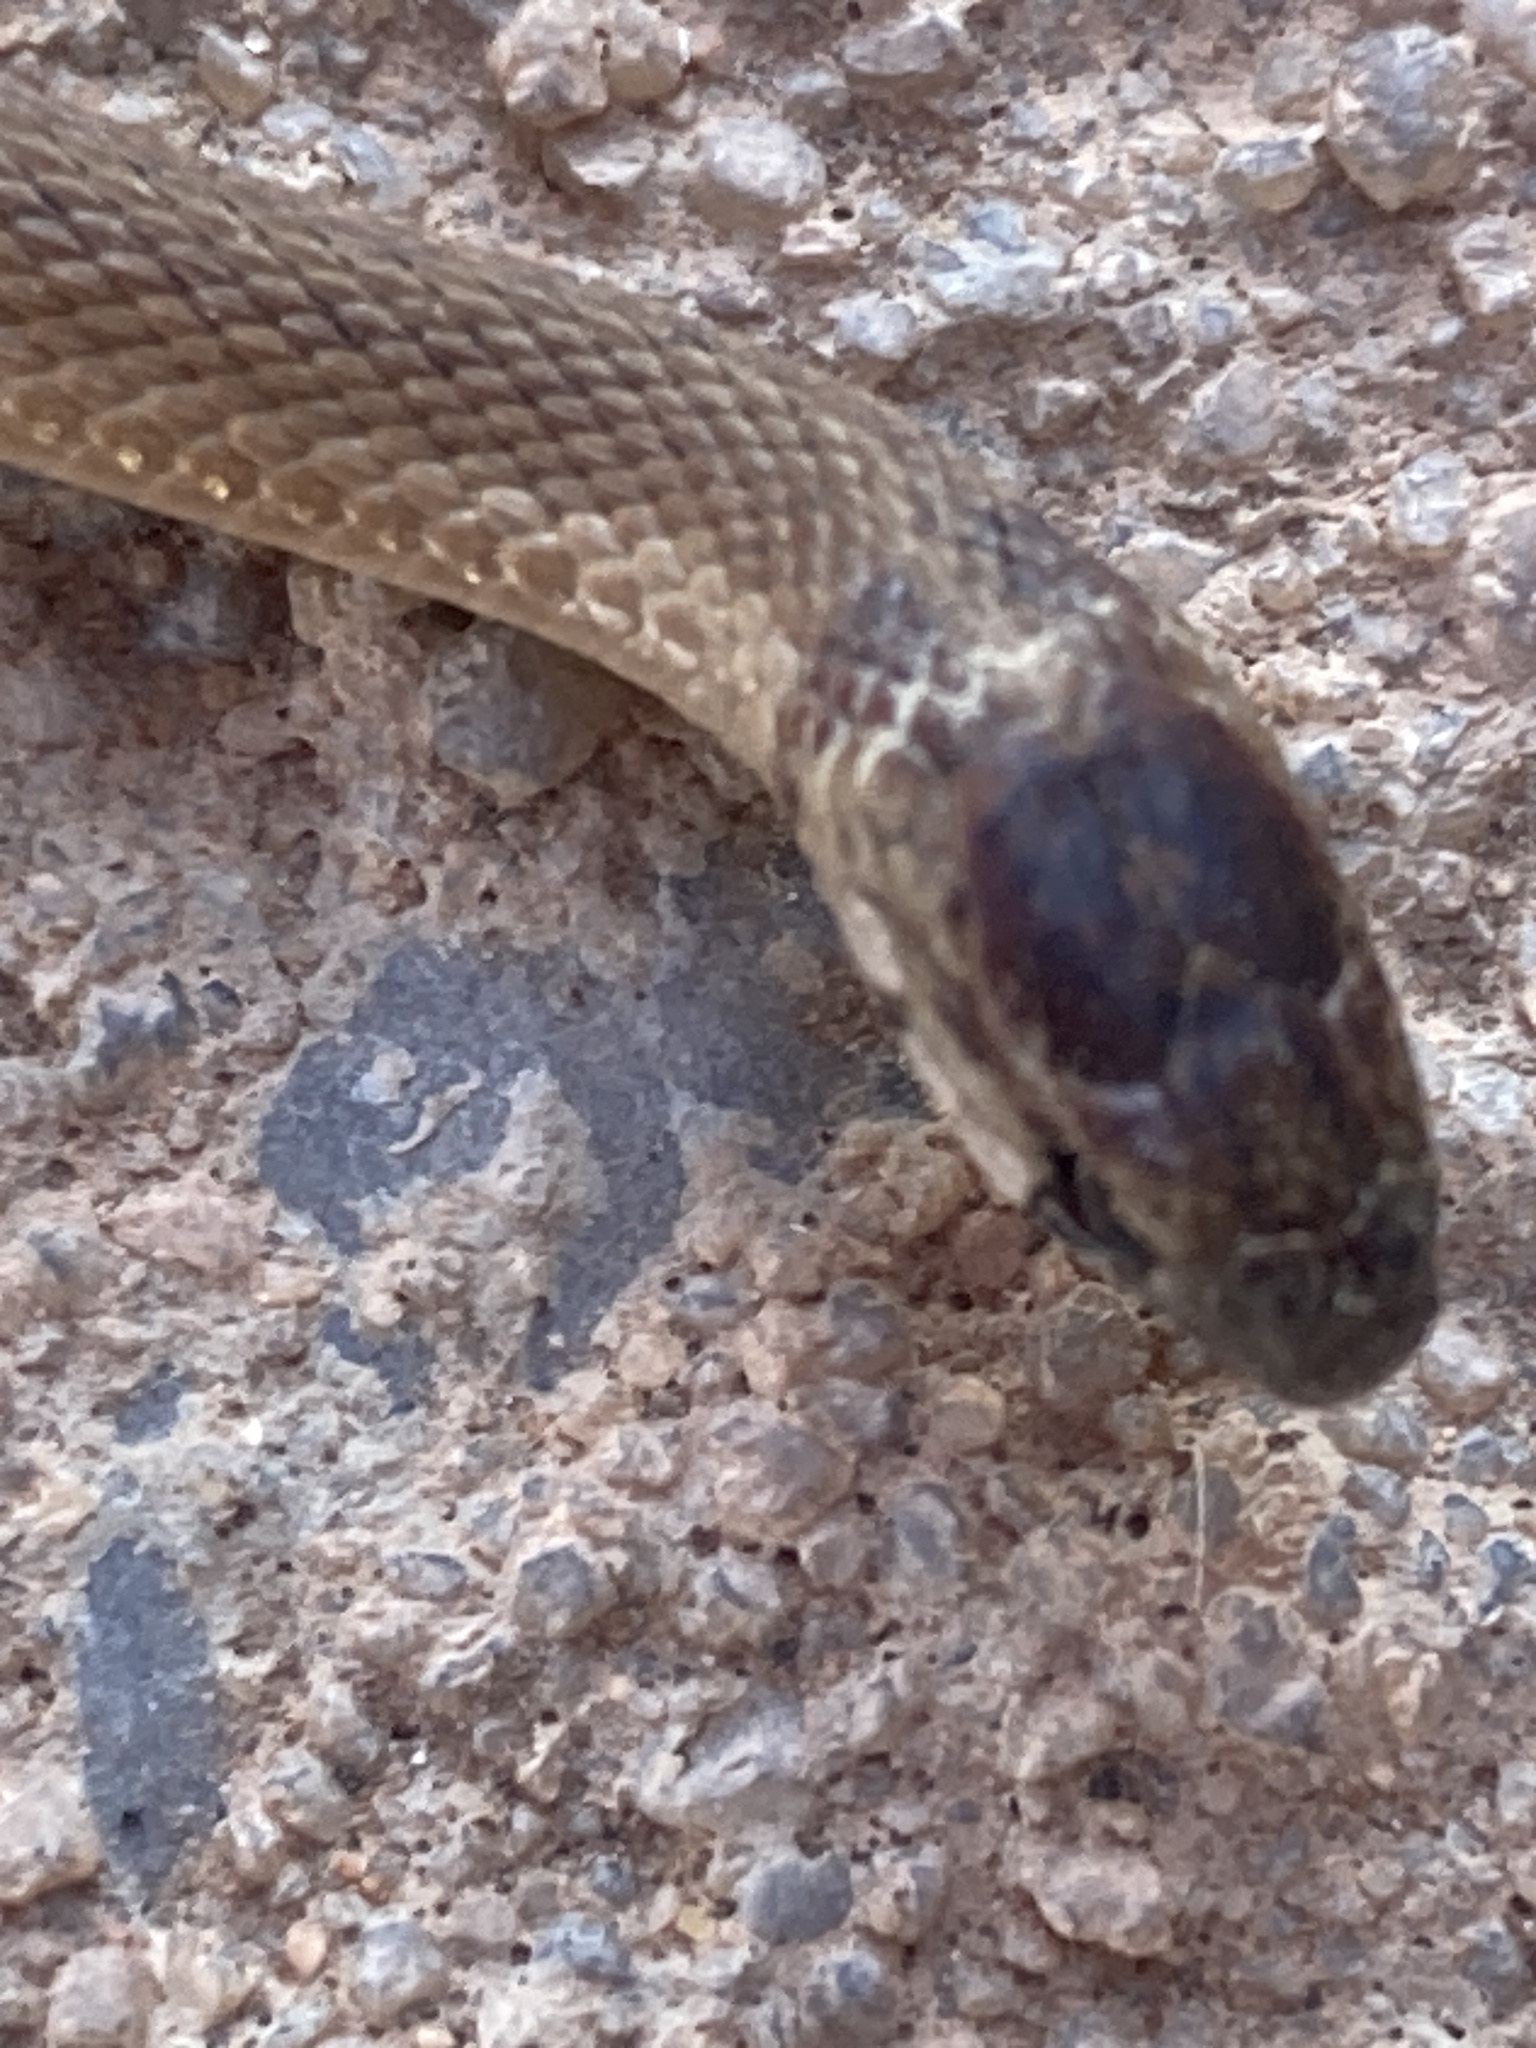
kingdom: Animalia
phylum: Chordata
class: Squamata
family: Colubridae
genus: Storeria
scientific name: Storeria dekayi
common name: (dekay’s) brown snake
